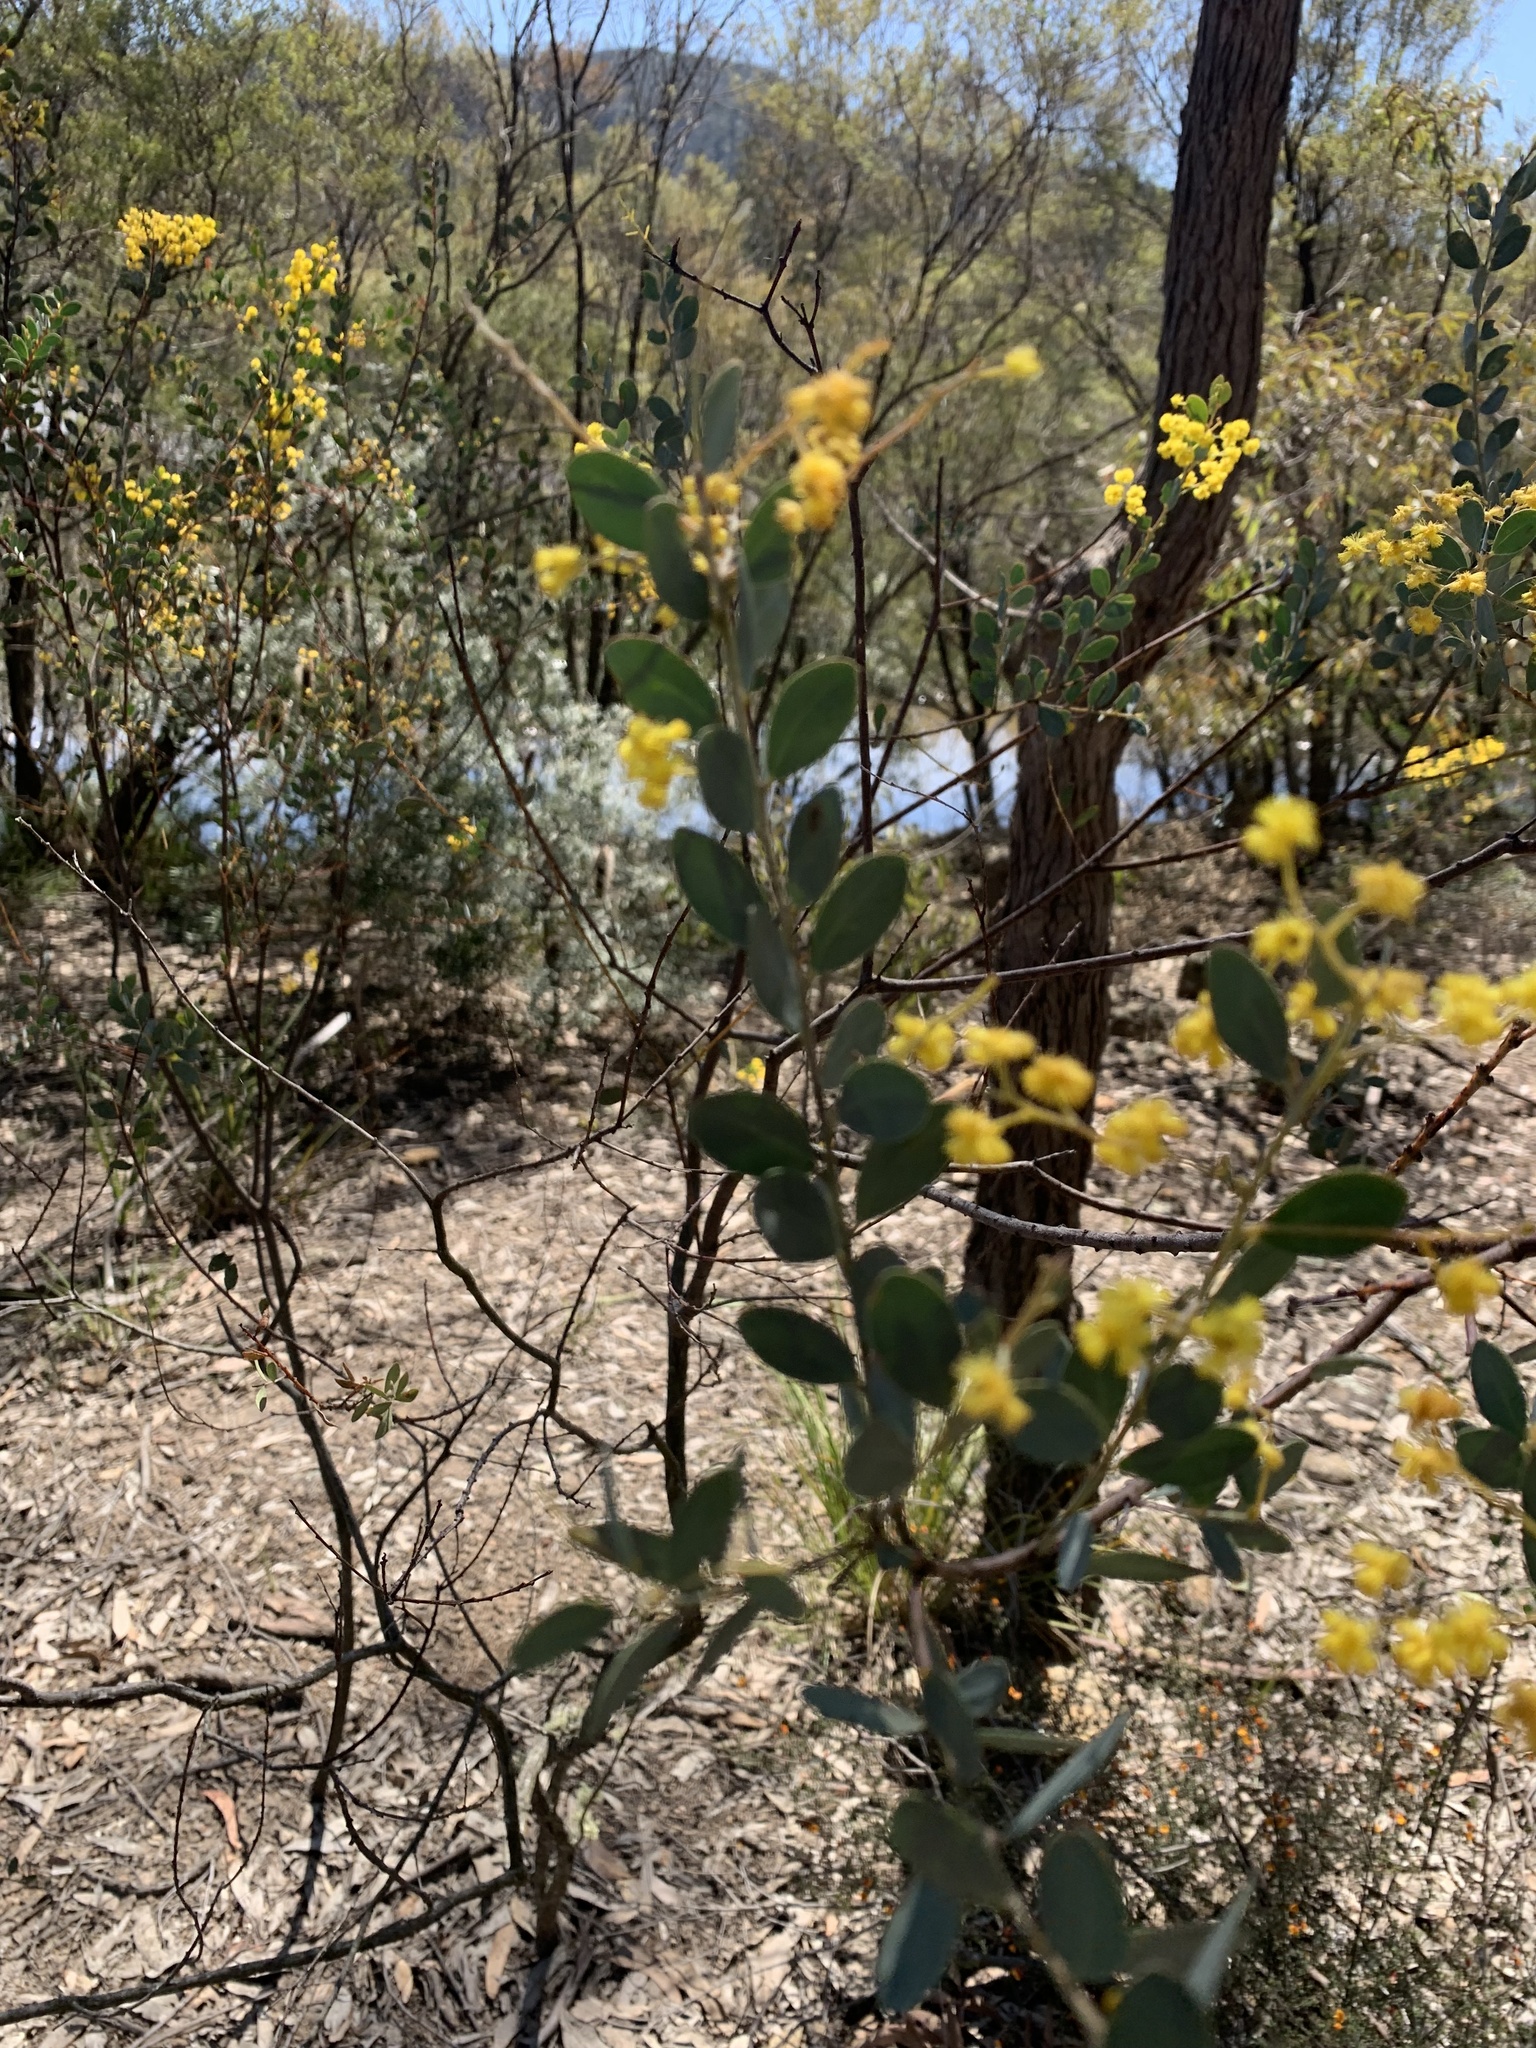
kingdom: Plantae
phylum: Tracheophyta
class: Magnoliopsida
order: Fabales
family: Fabaceae
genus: Acacia
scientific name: Acacia buxifolia
